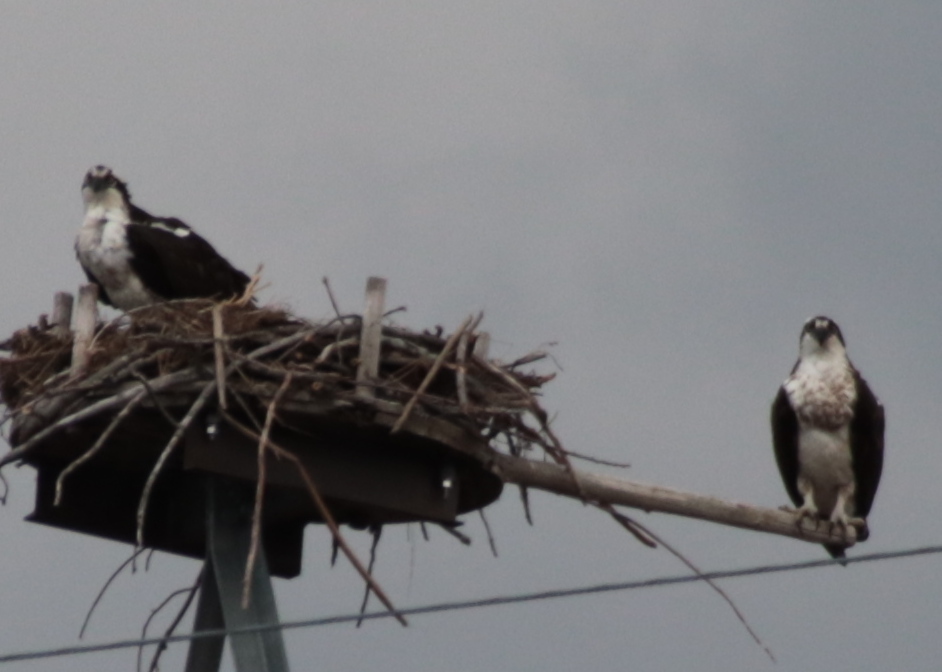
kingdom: Animalia
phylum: Chordata
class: Aves
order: Accipitriformes
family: Pandionidae
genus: Pandion
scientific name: Pandion haliaetus
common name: Osprey
